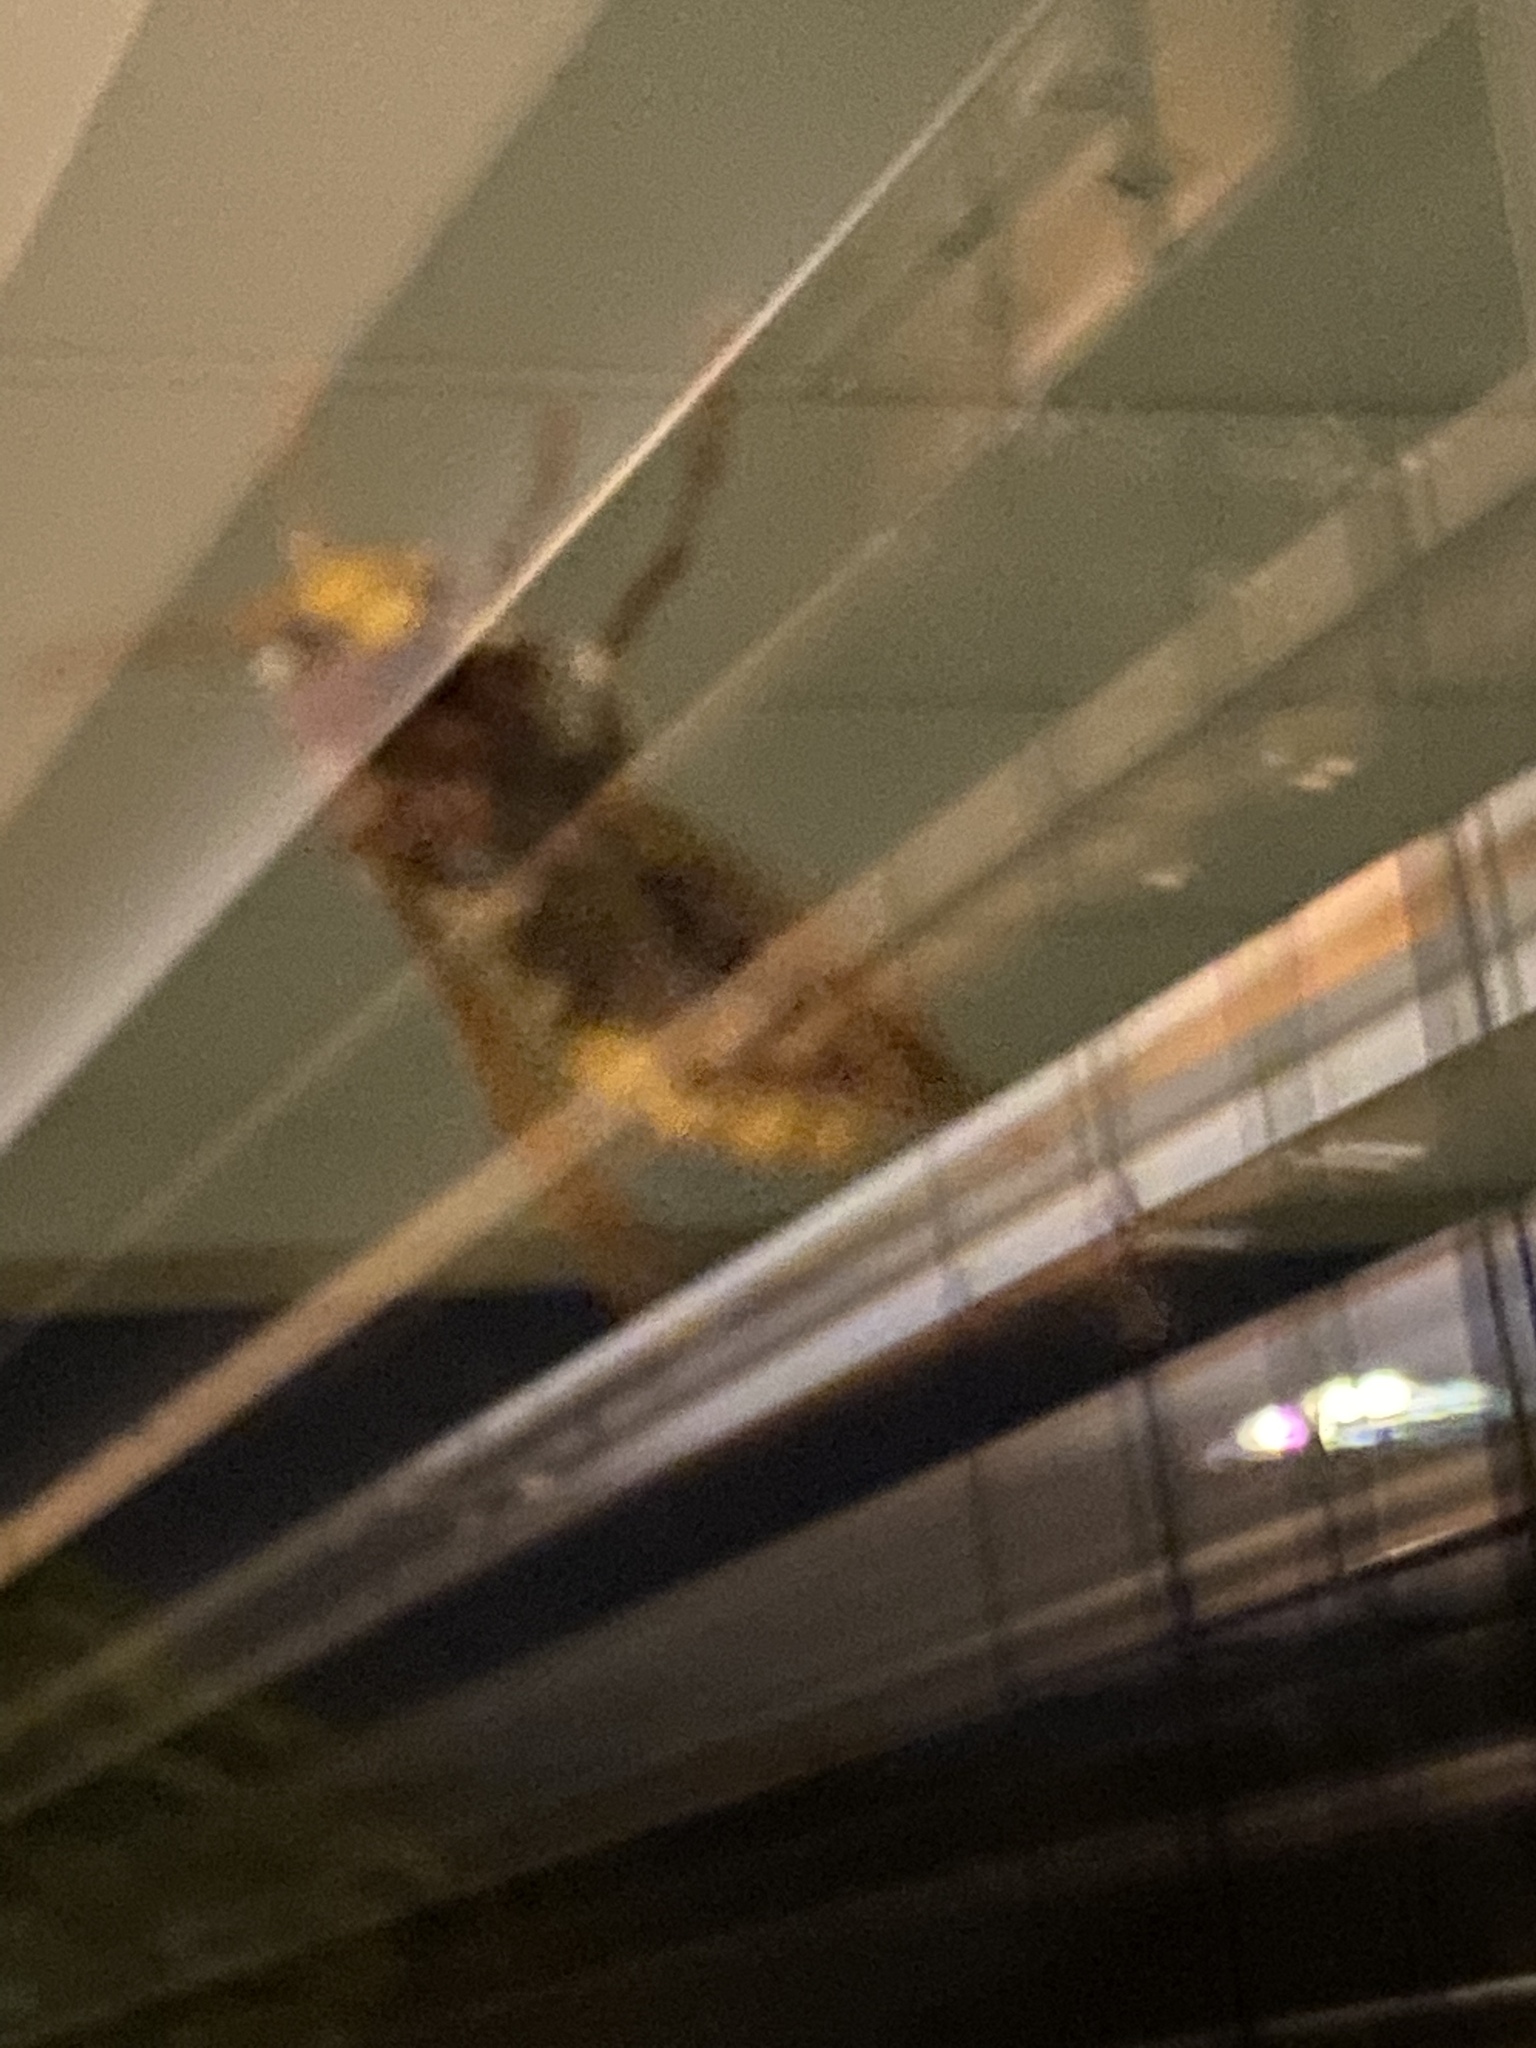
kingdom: Animalia
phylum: Arthropoda
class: Insecta
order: Hymenoptera
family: Vespidae
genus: Vespa
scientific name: Vespa crabro
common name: Hornet
